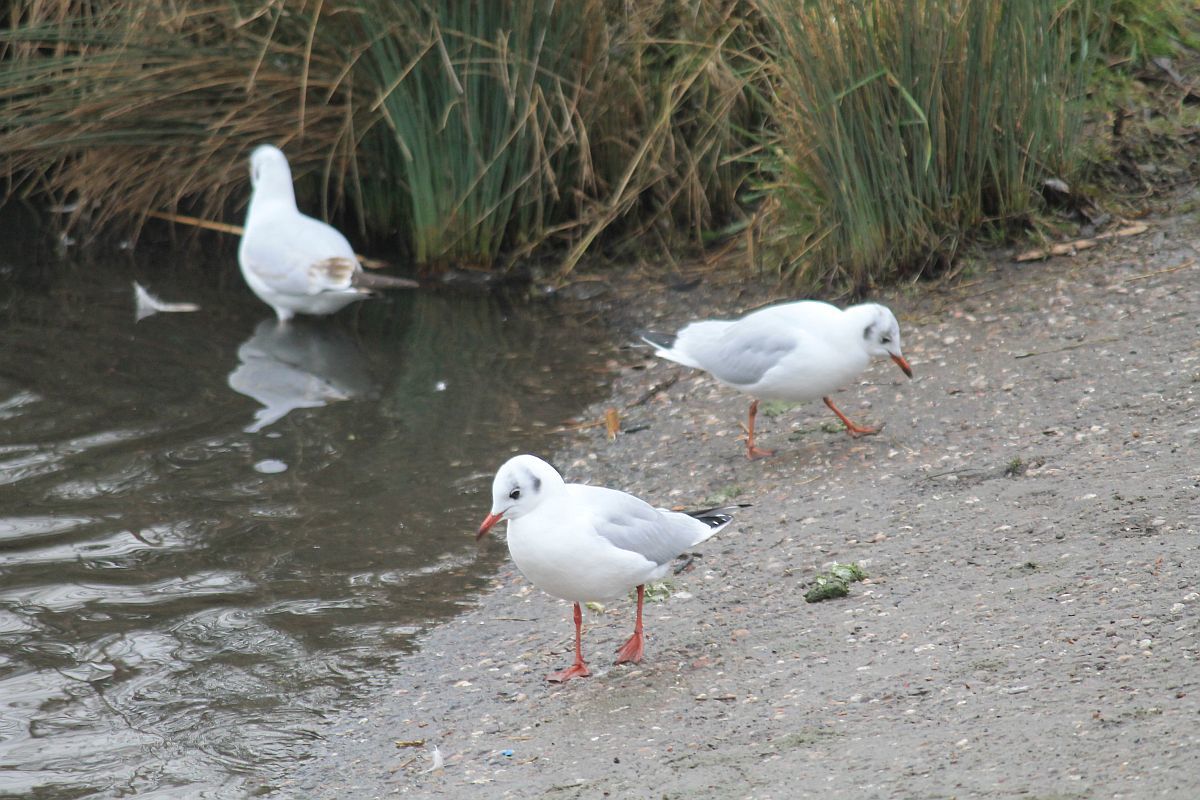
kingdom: Animalia
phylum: Chordata
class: Aves
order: Charadriiformes
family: Laridae
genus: Chroicocephalus
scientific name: Chroicocephalus ridibundus
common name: Black-headed gull
